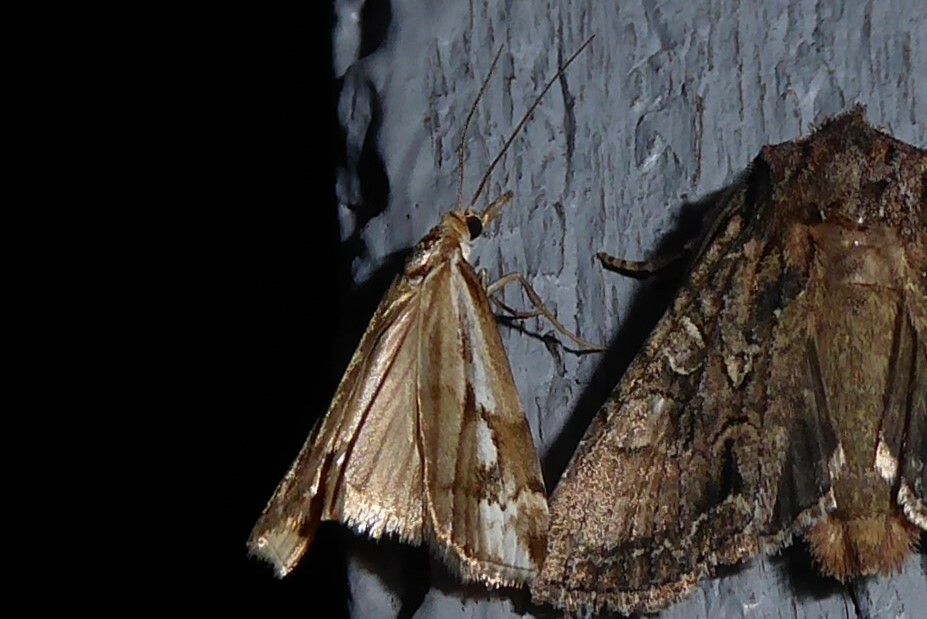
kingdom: Animalia
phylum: Arthropoda
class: Insecta
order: Lepidoptera
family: Crambidae
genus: Orocrambus
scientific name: Orocrambus vulgaris
